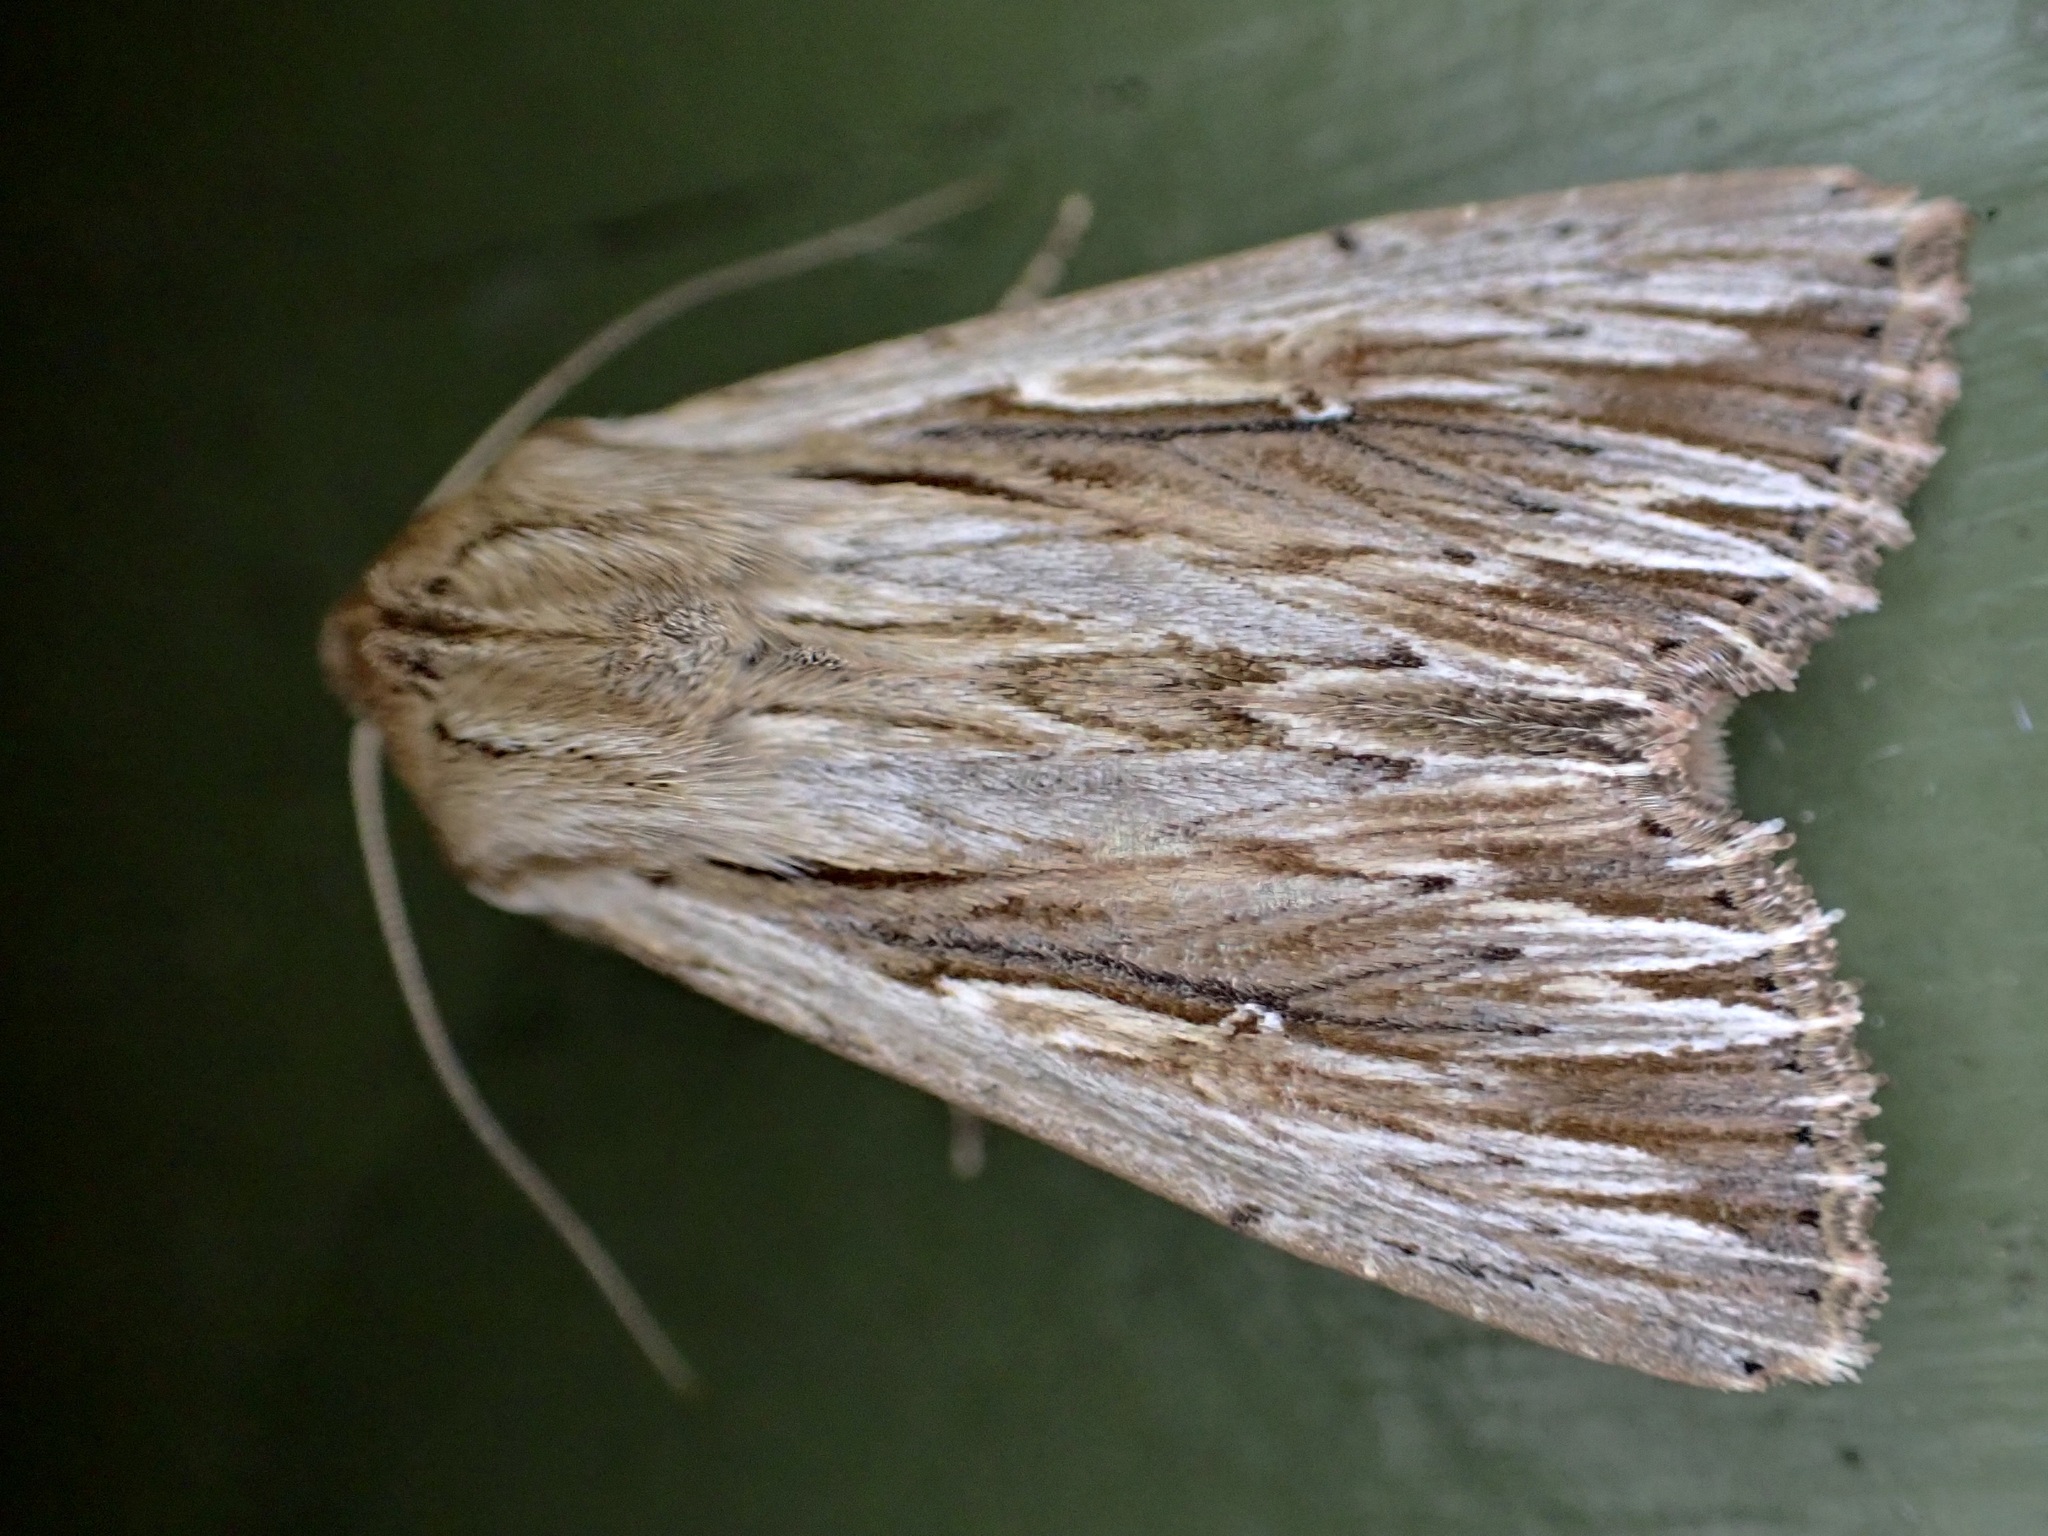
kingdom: Animalia
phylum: Arthropoda
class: Insecta
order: Lepidoptera
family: Noctuidae
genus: Persectania
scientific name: Persectania aversa
